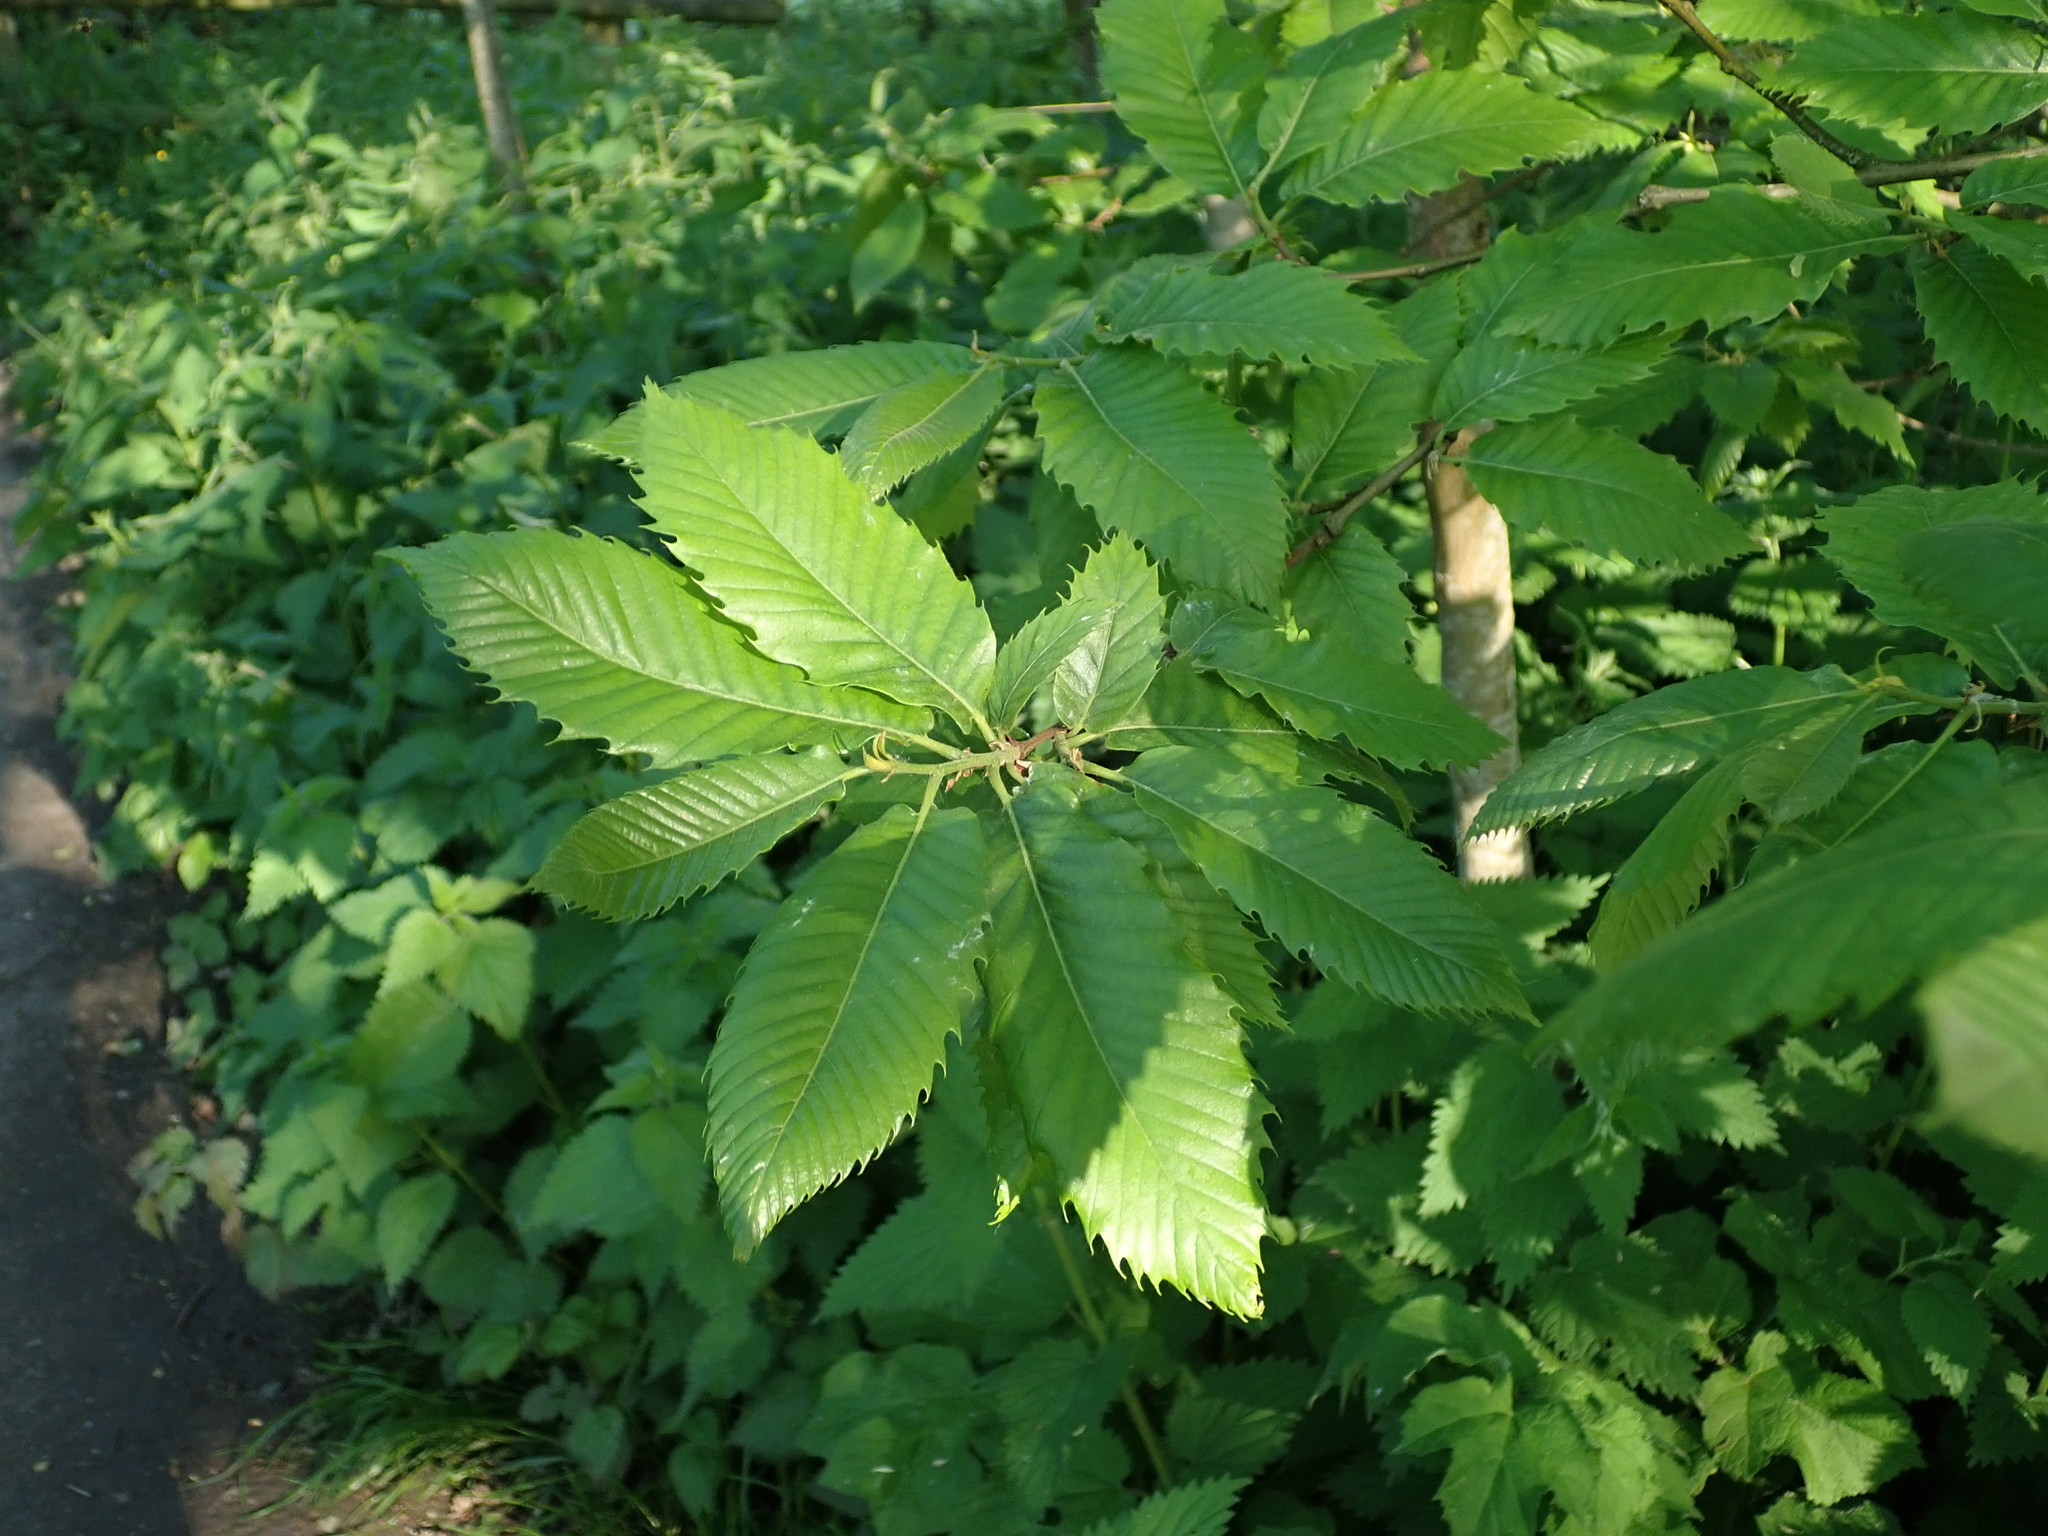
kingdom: Plantae
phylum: Tracheophyta
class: Magnoliopsida
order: Fagales
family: Fagaceae
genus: Castanea
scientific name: Castanea sativa
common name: Sweet chestnut
